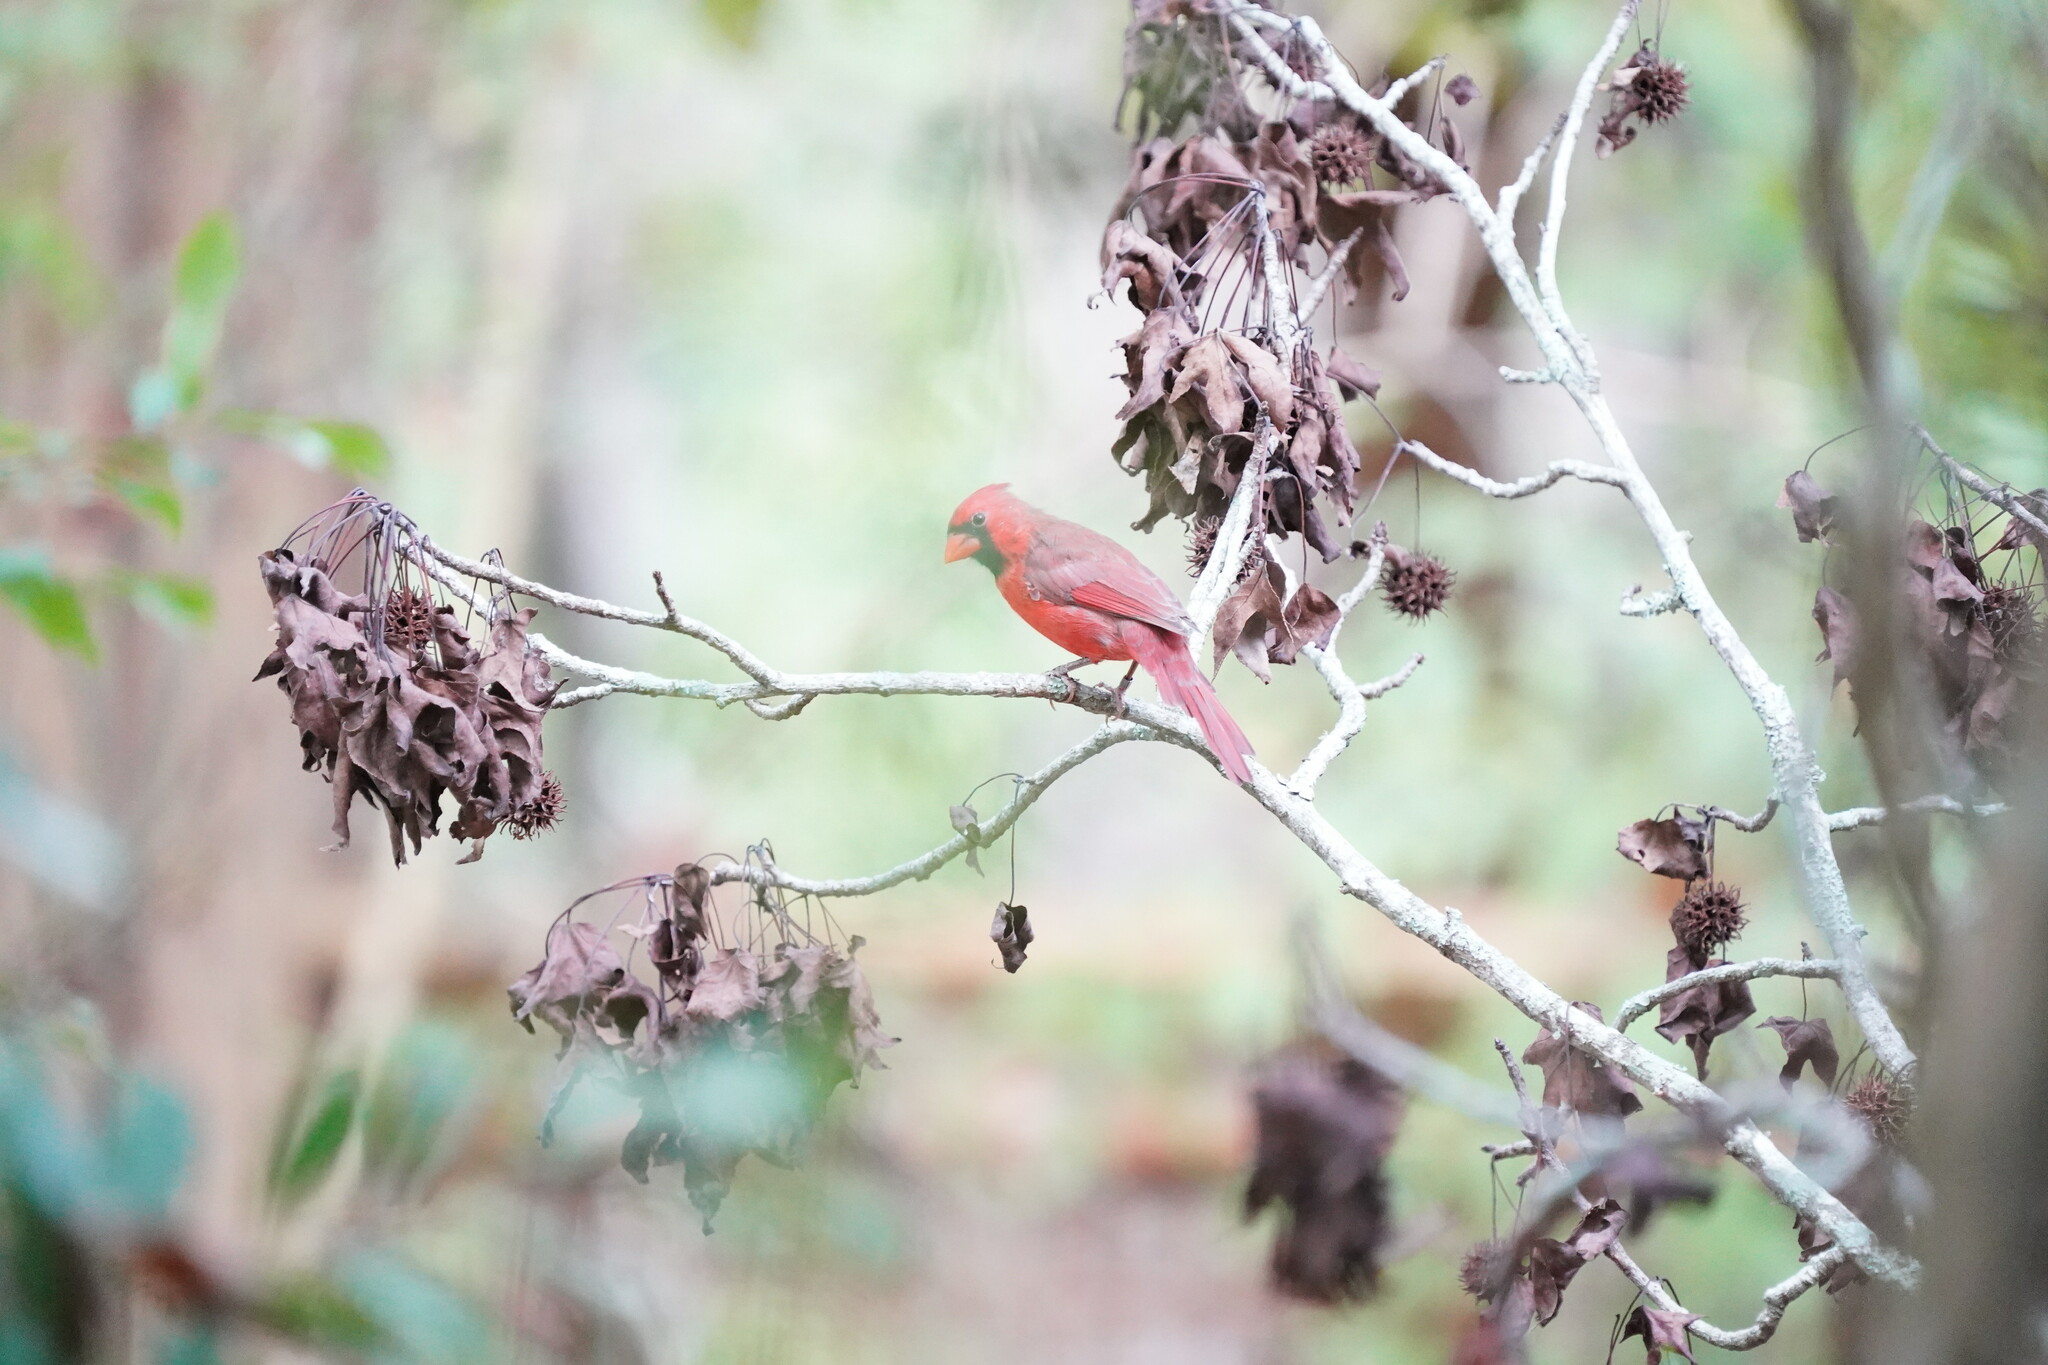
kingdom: Animalia
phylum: Chordata
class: Aves
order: Passeriformes
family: Cardinalidae
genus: Cardinalis
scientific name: Cardinalis cardinalis
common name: Northern cardinal
